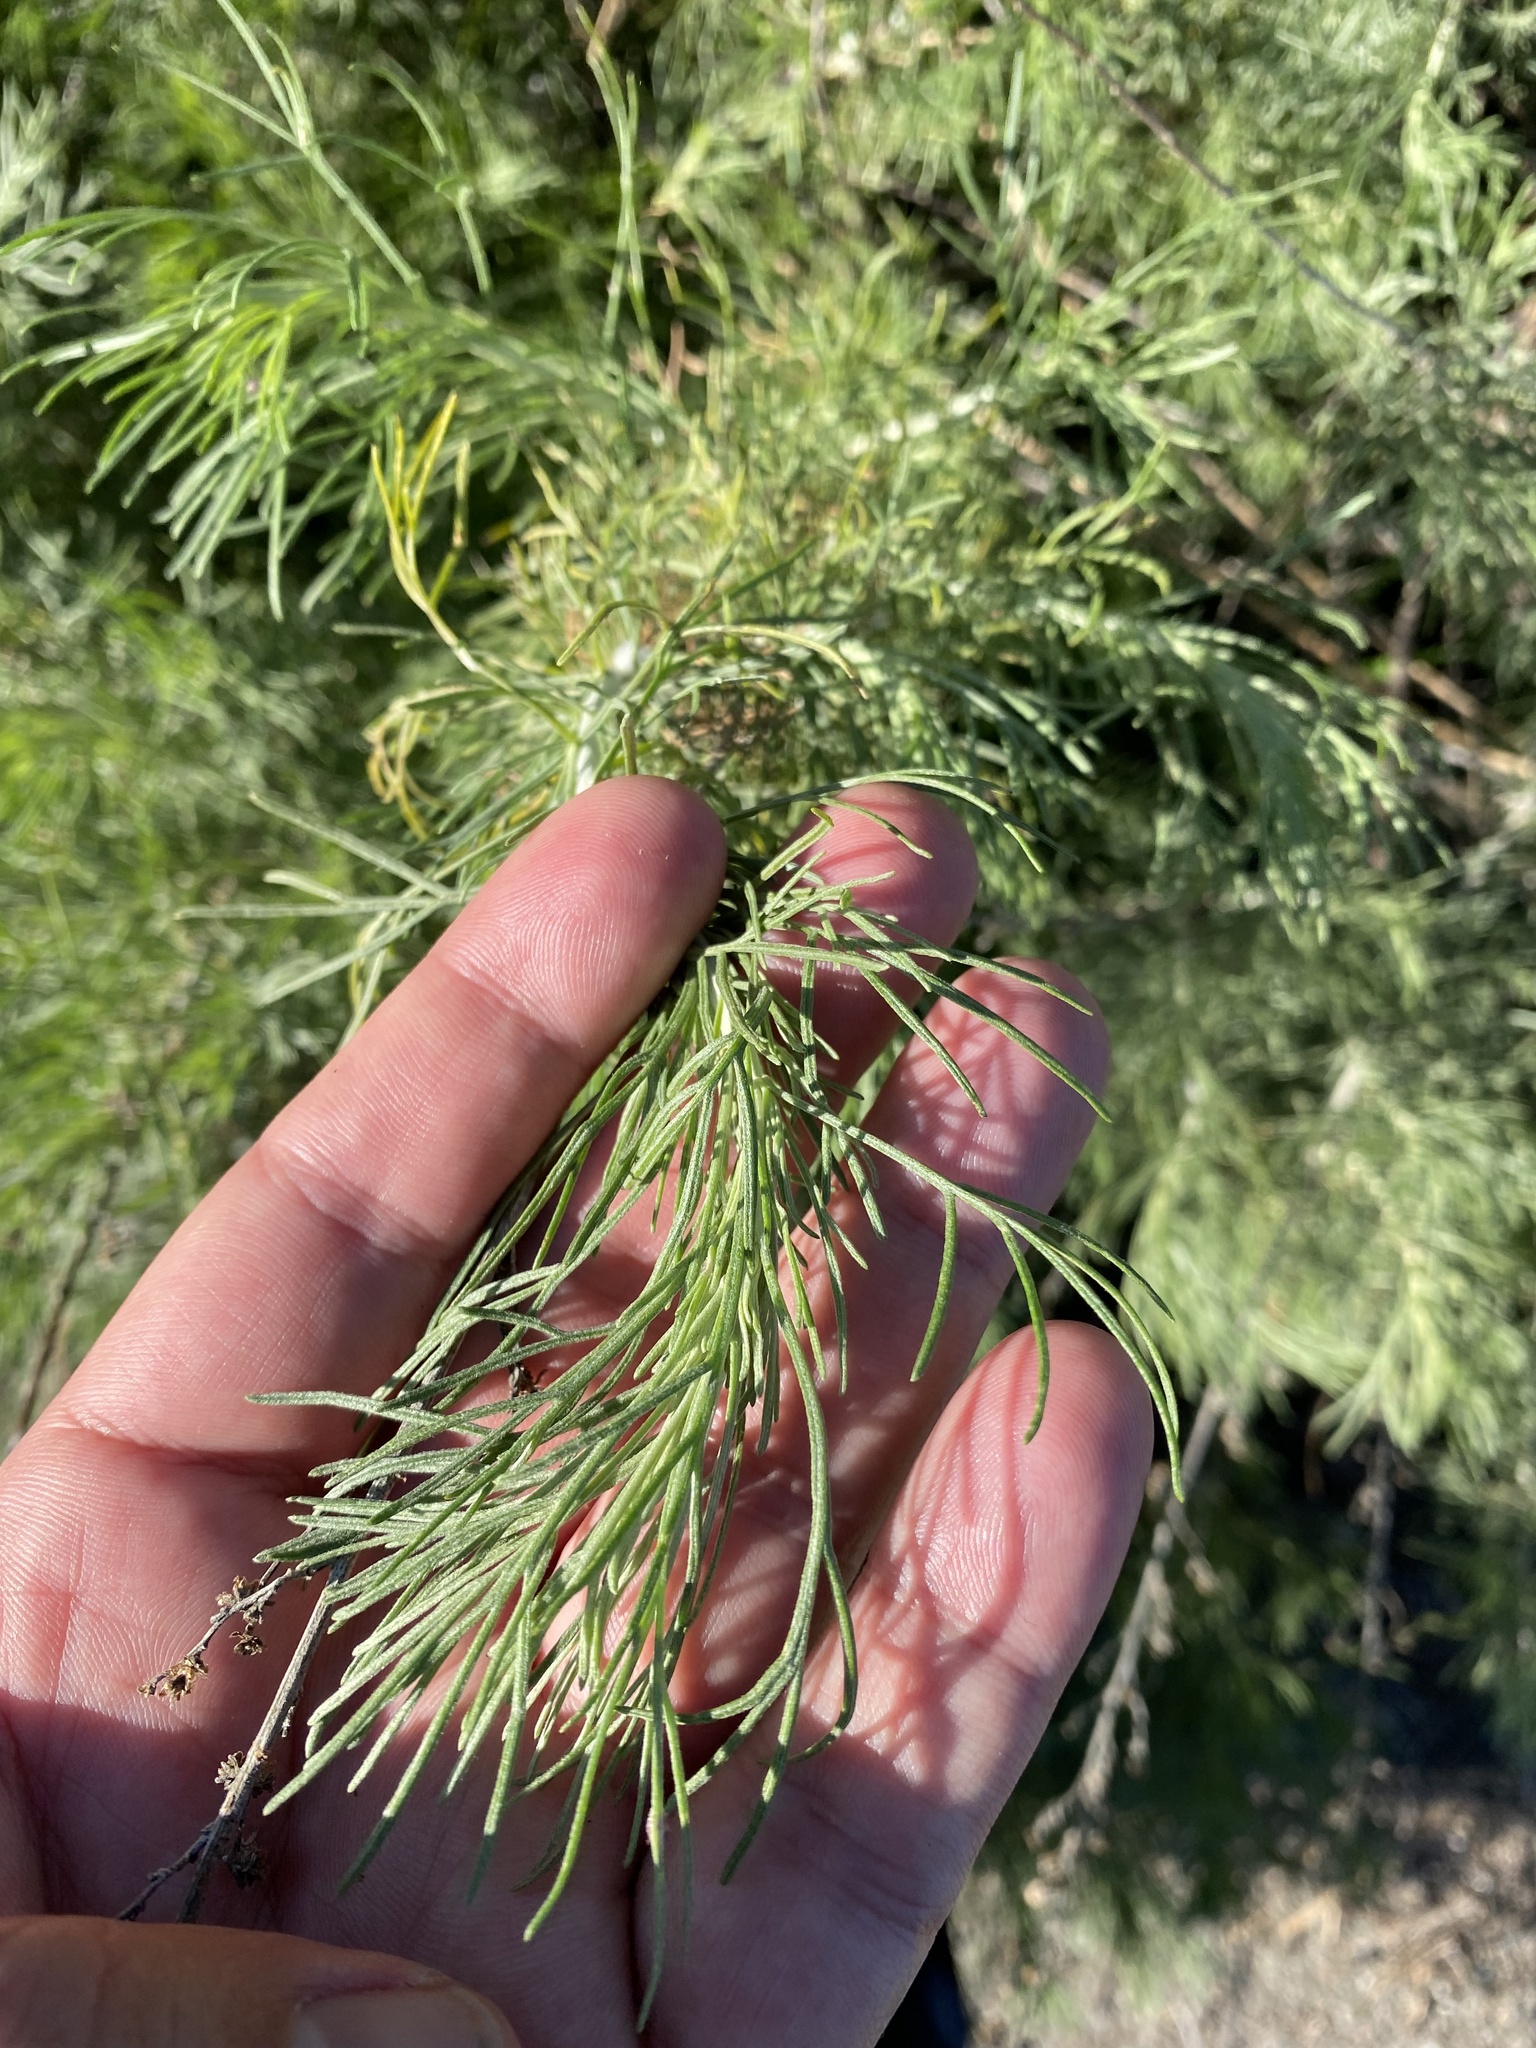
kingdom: Plantae
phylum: Tracheophyta
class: Magnoliopsida
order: Asterales
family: Asteraceae
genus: Artemisia
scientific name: Artemisia californica
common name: California sagebrush
